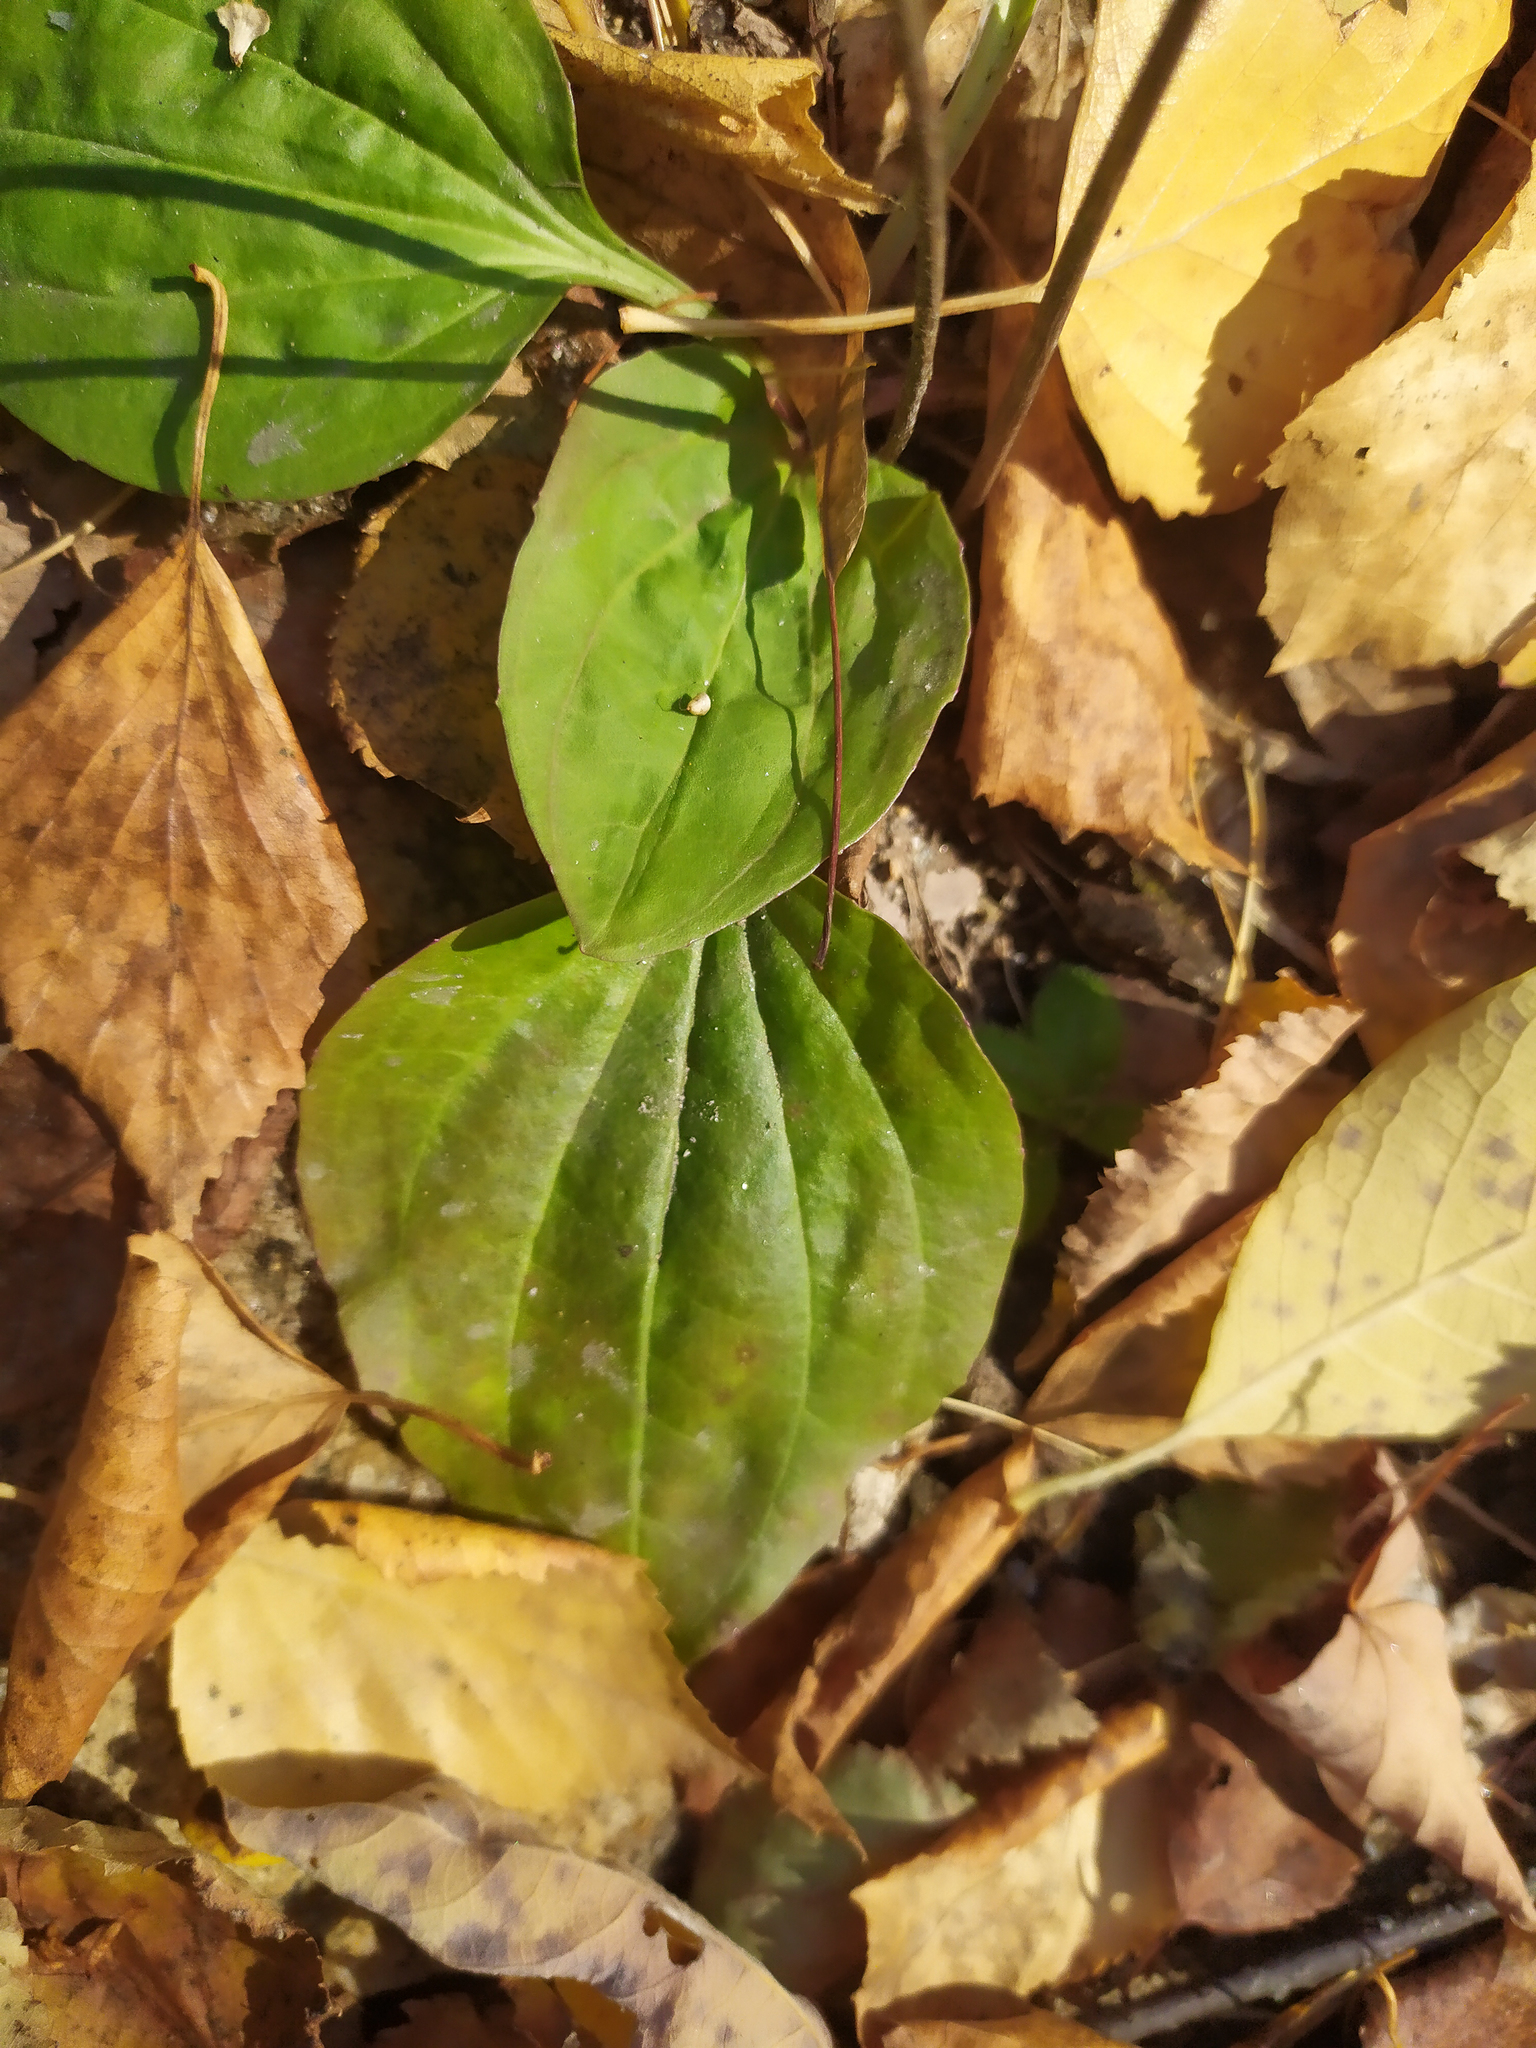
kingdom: Plantae
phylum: Tracheophyta
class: Magnoliopsida
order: Lamiales
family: Plantaginaceae
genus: Plantago
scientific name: Plantago major
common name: Common plantain
